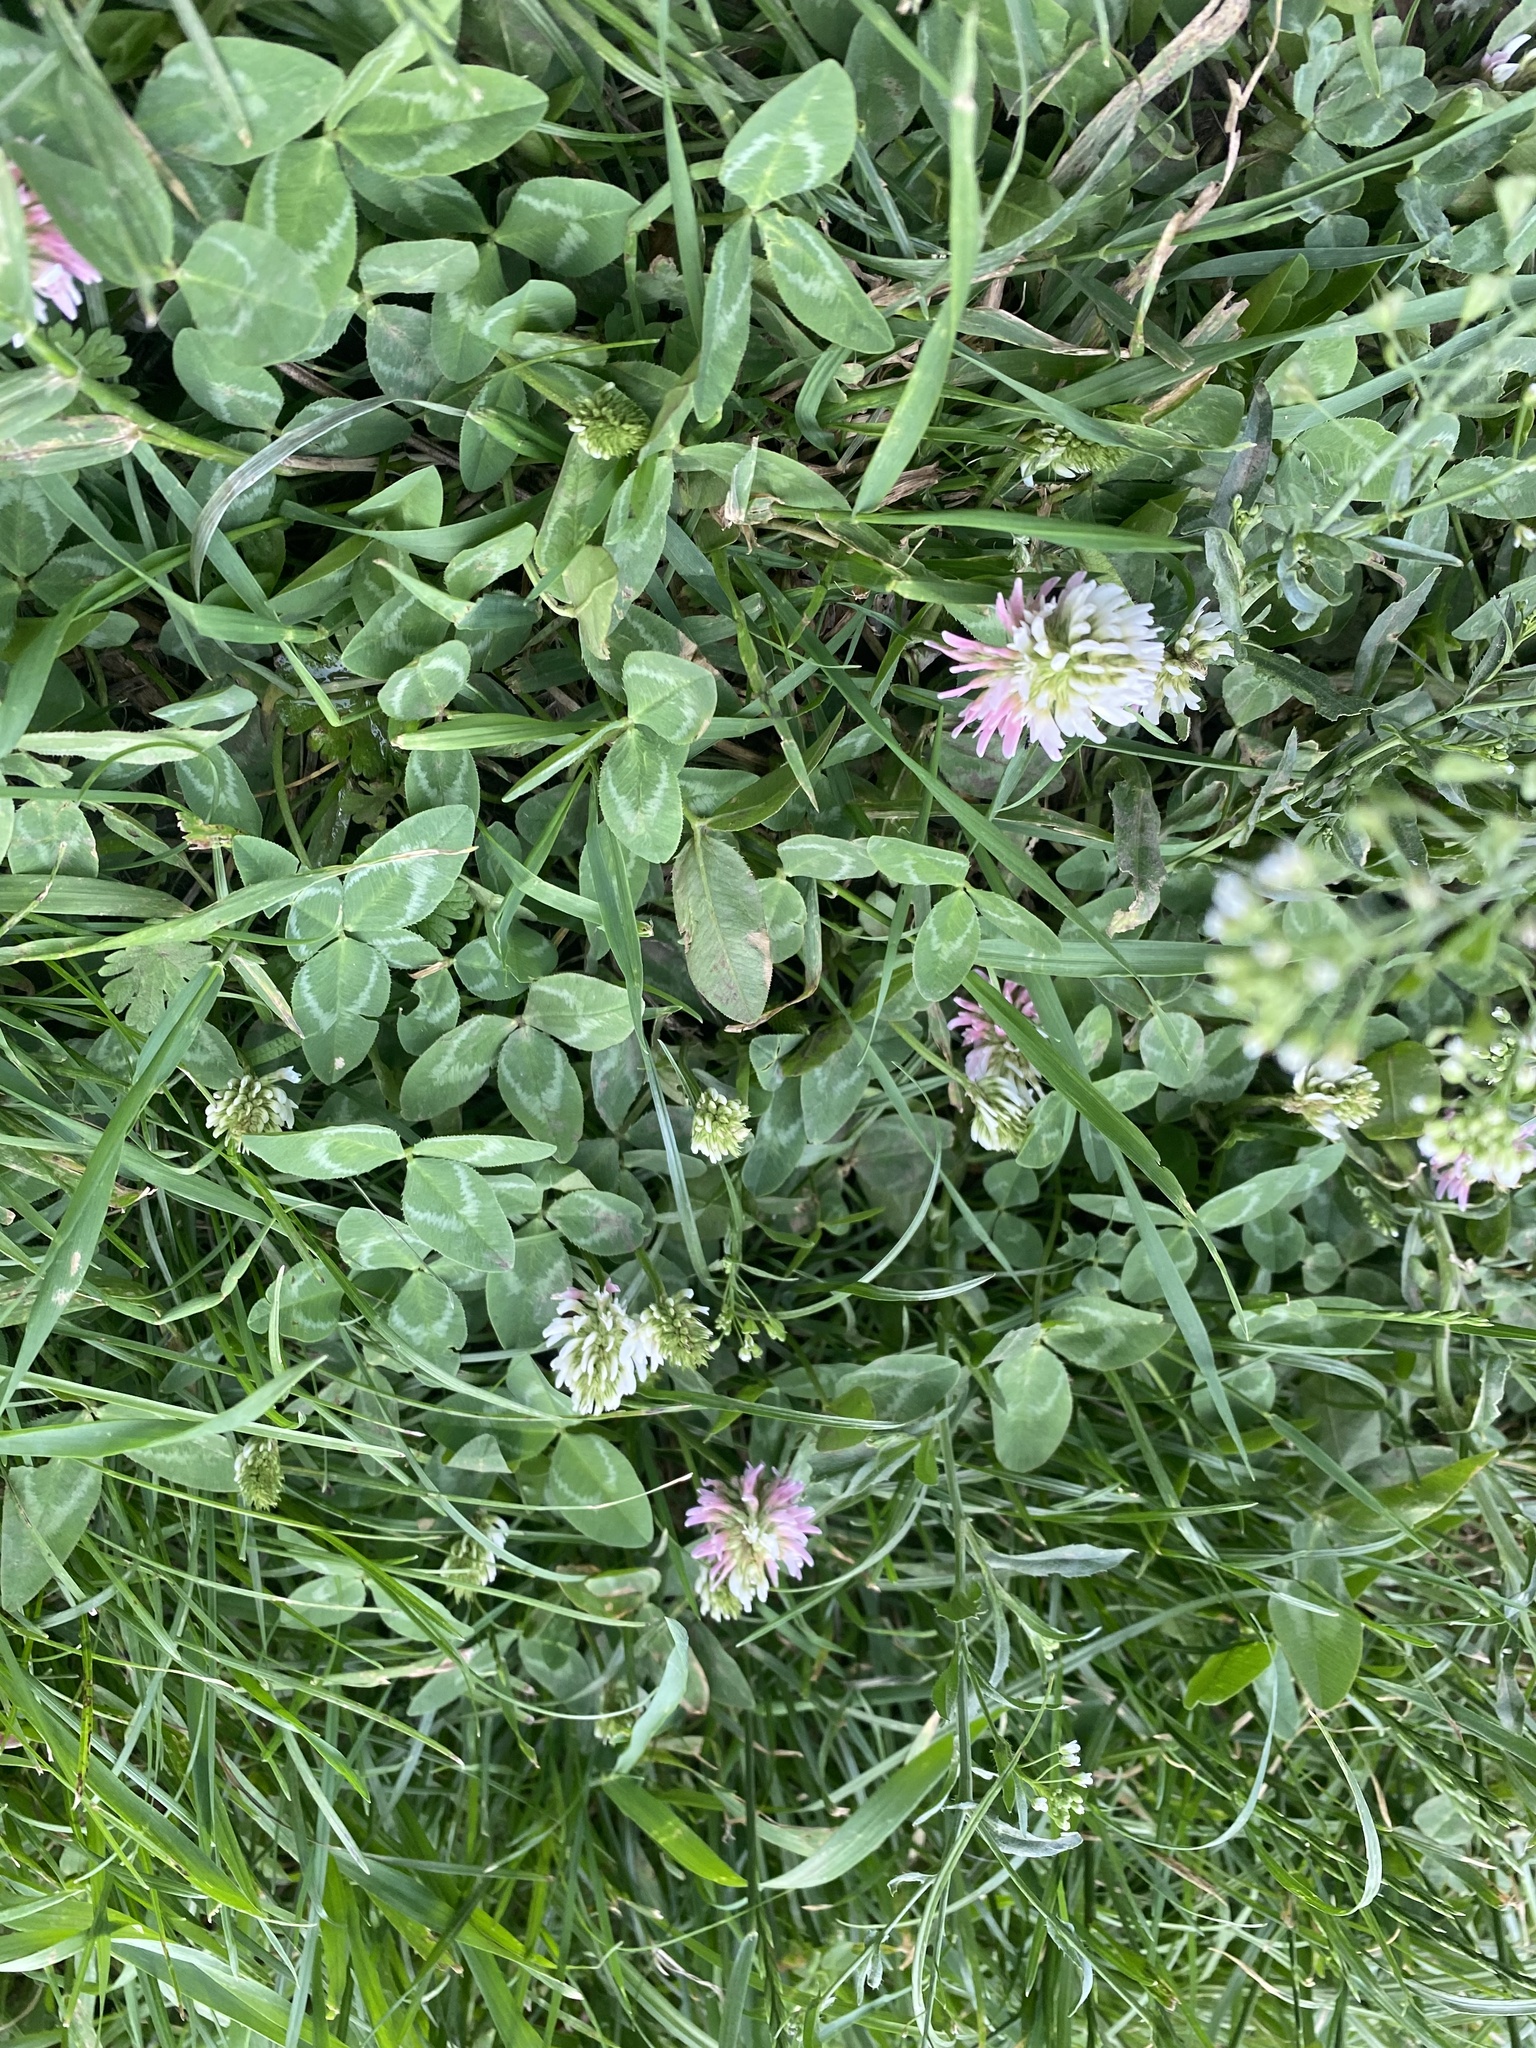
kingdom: Plantae
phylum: Tracheophyta
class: Magnoliopsida
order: Fabales
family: Fabaceae
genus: Trifolium
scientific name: Trifolium ambiguum
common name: Kura clover
